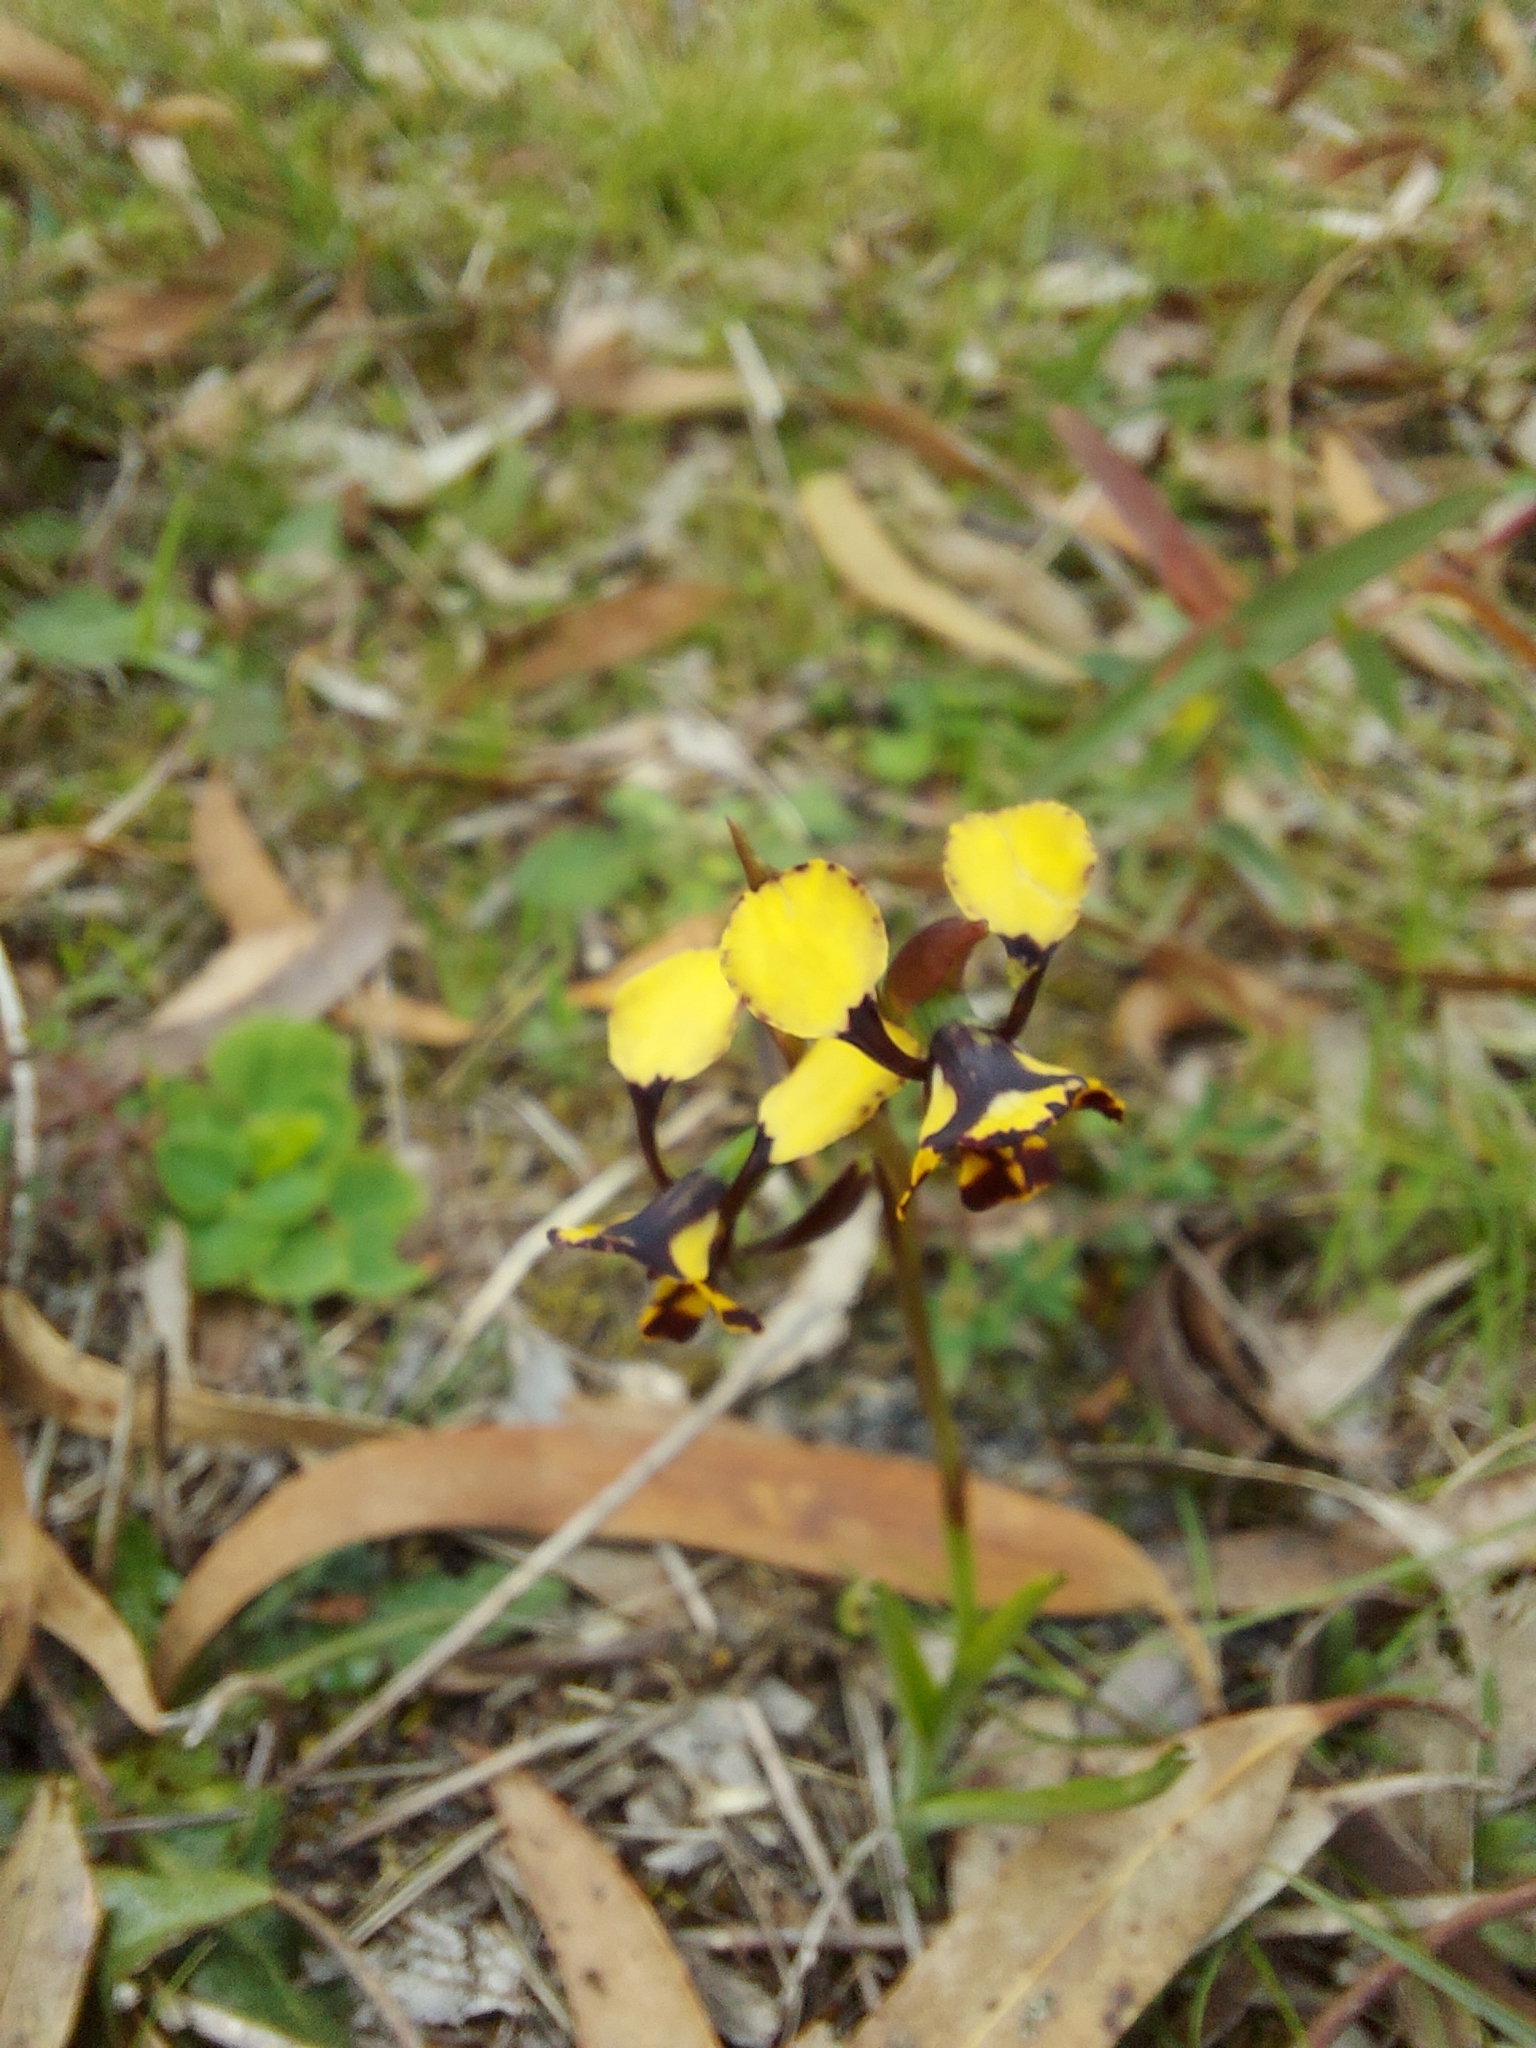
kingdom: Plantae
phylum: Tracheophyta
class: Liliopsida
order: Asparagales
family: Orchidaceae
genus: Diuris
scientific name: Diuris pardina
